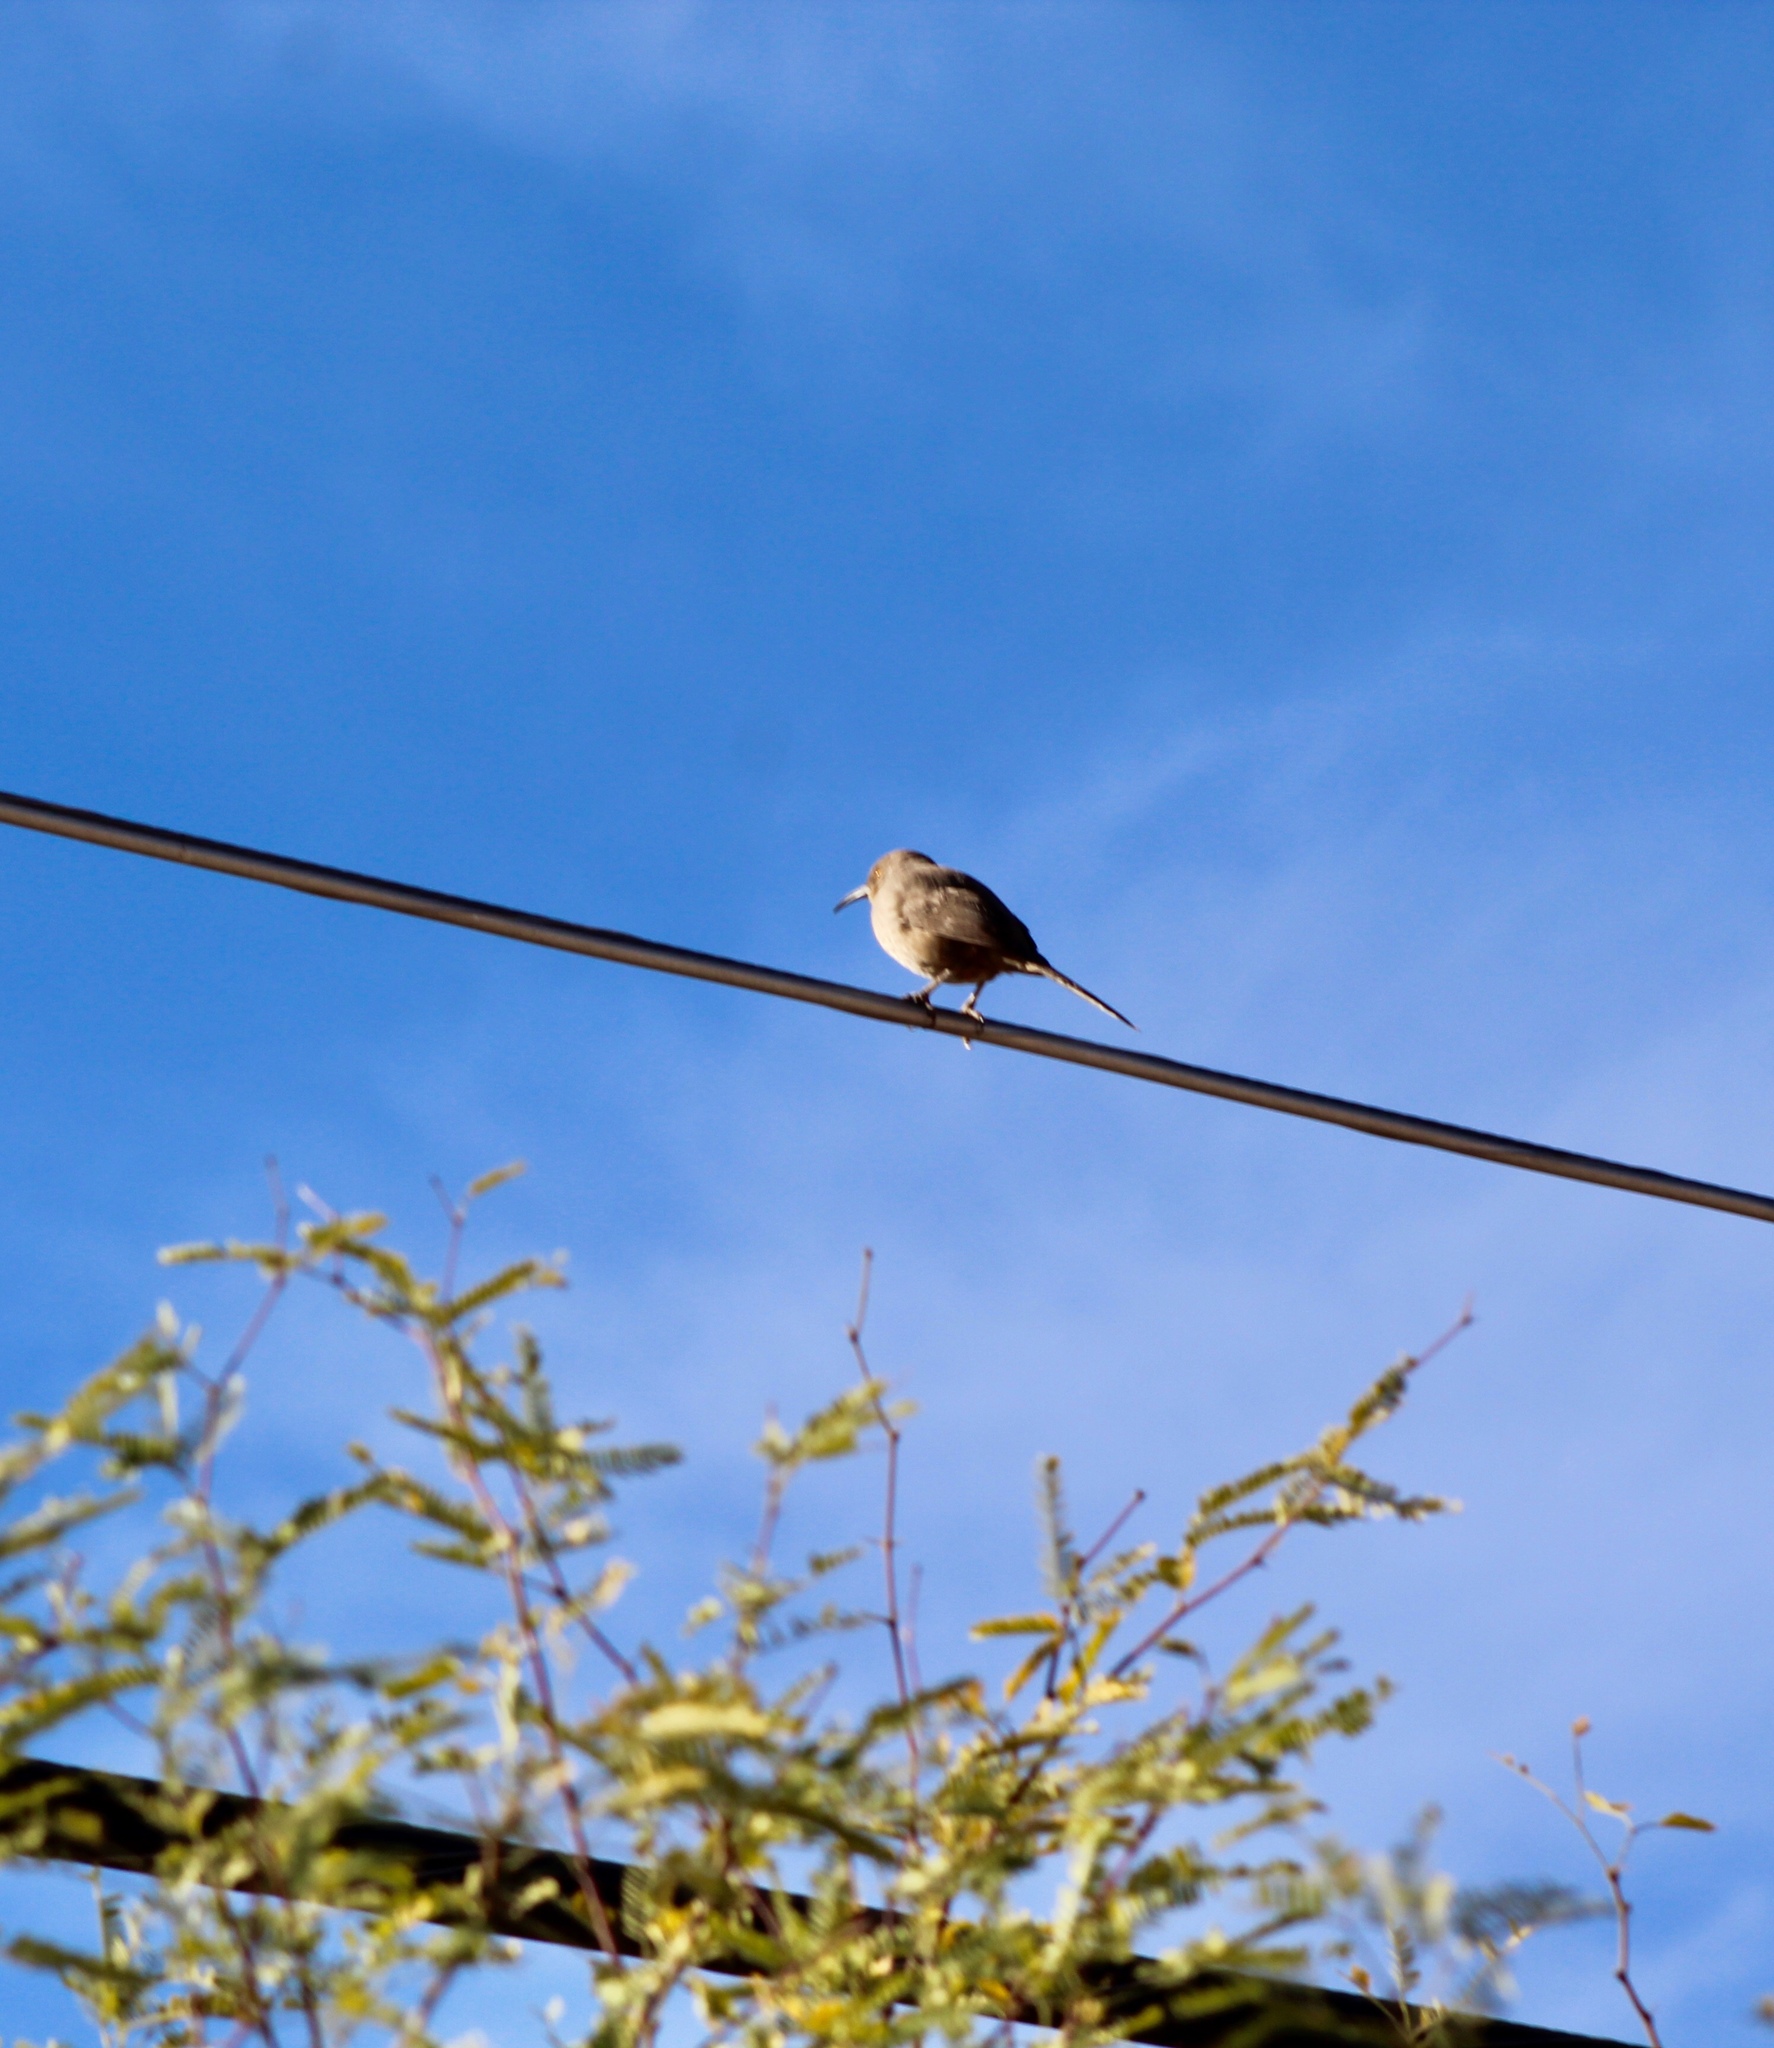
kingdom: Animalia
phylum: Chordata
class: Aves
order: Passeriformes
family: Mimidae
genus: Toxostoma
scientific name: Toxostoma curvirostre
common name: Curve-billed thrasher
